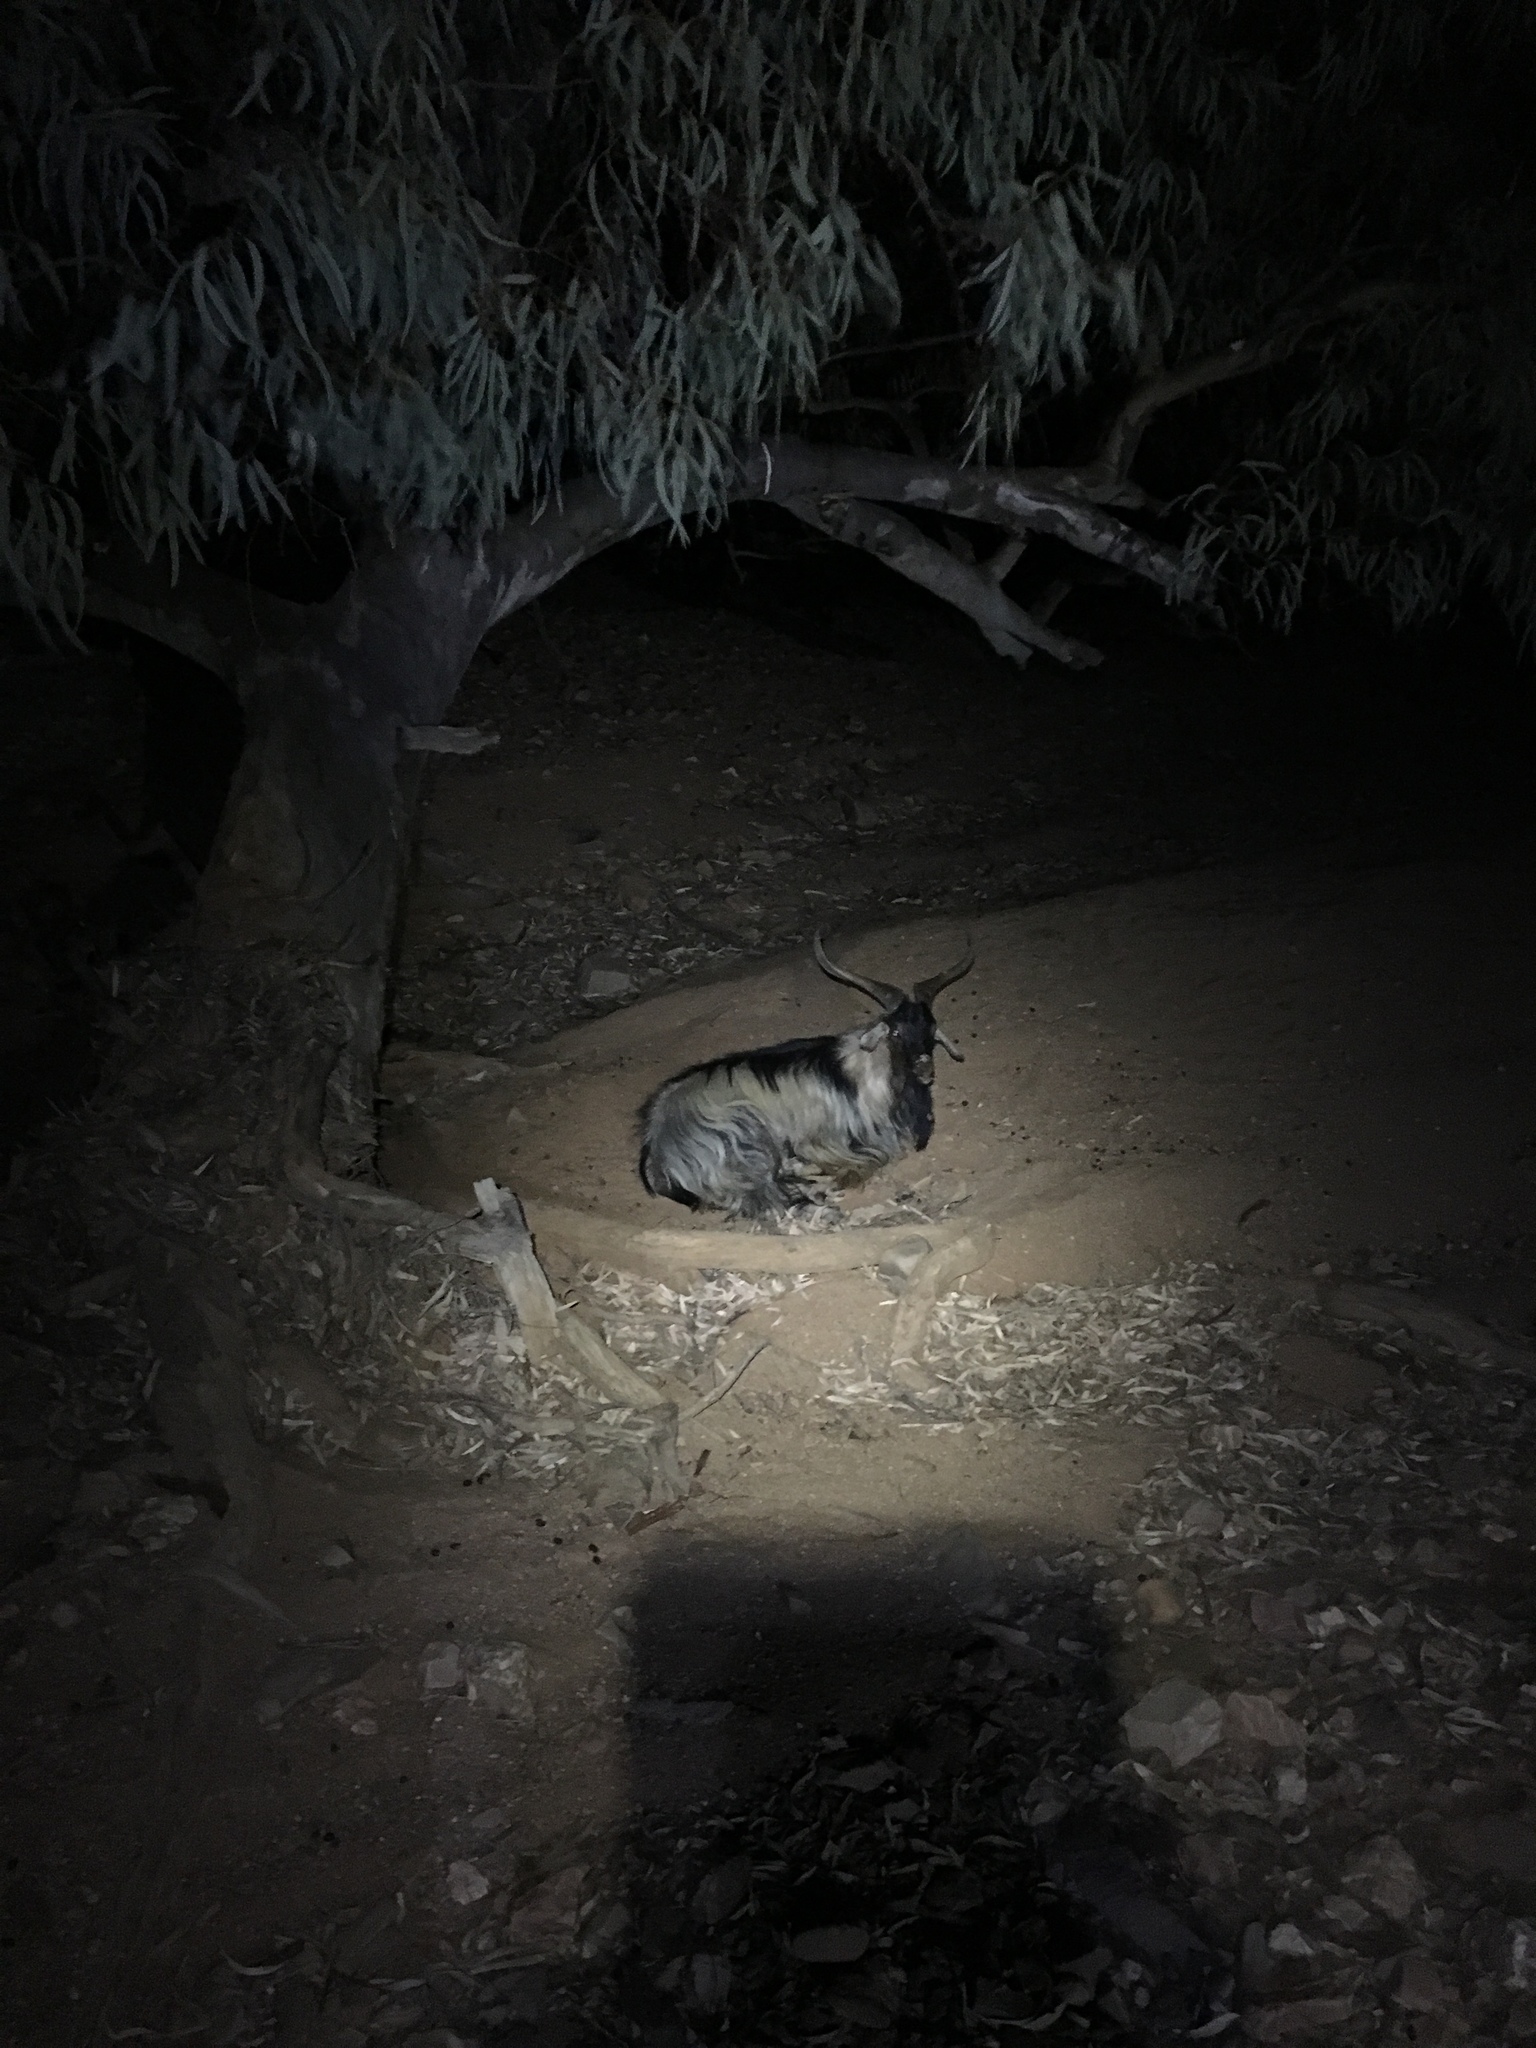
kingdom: Animalia
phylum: Chordata
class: Mammalia
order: Artiodactyla
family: Bovidae
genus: Capra
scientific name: Capra hircus
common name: Domestic goat
